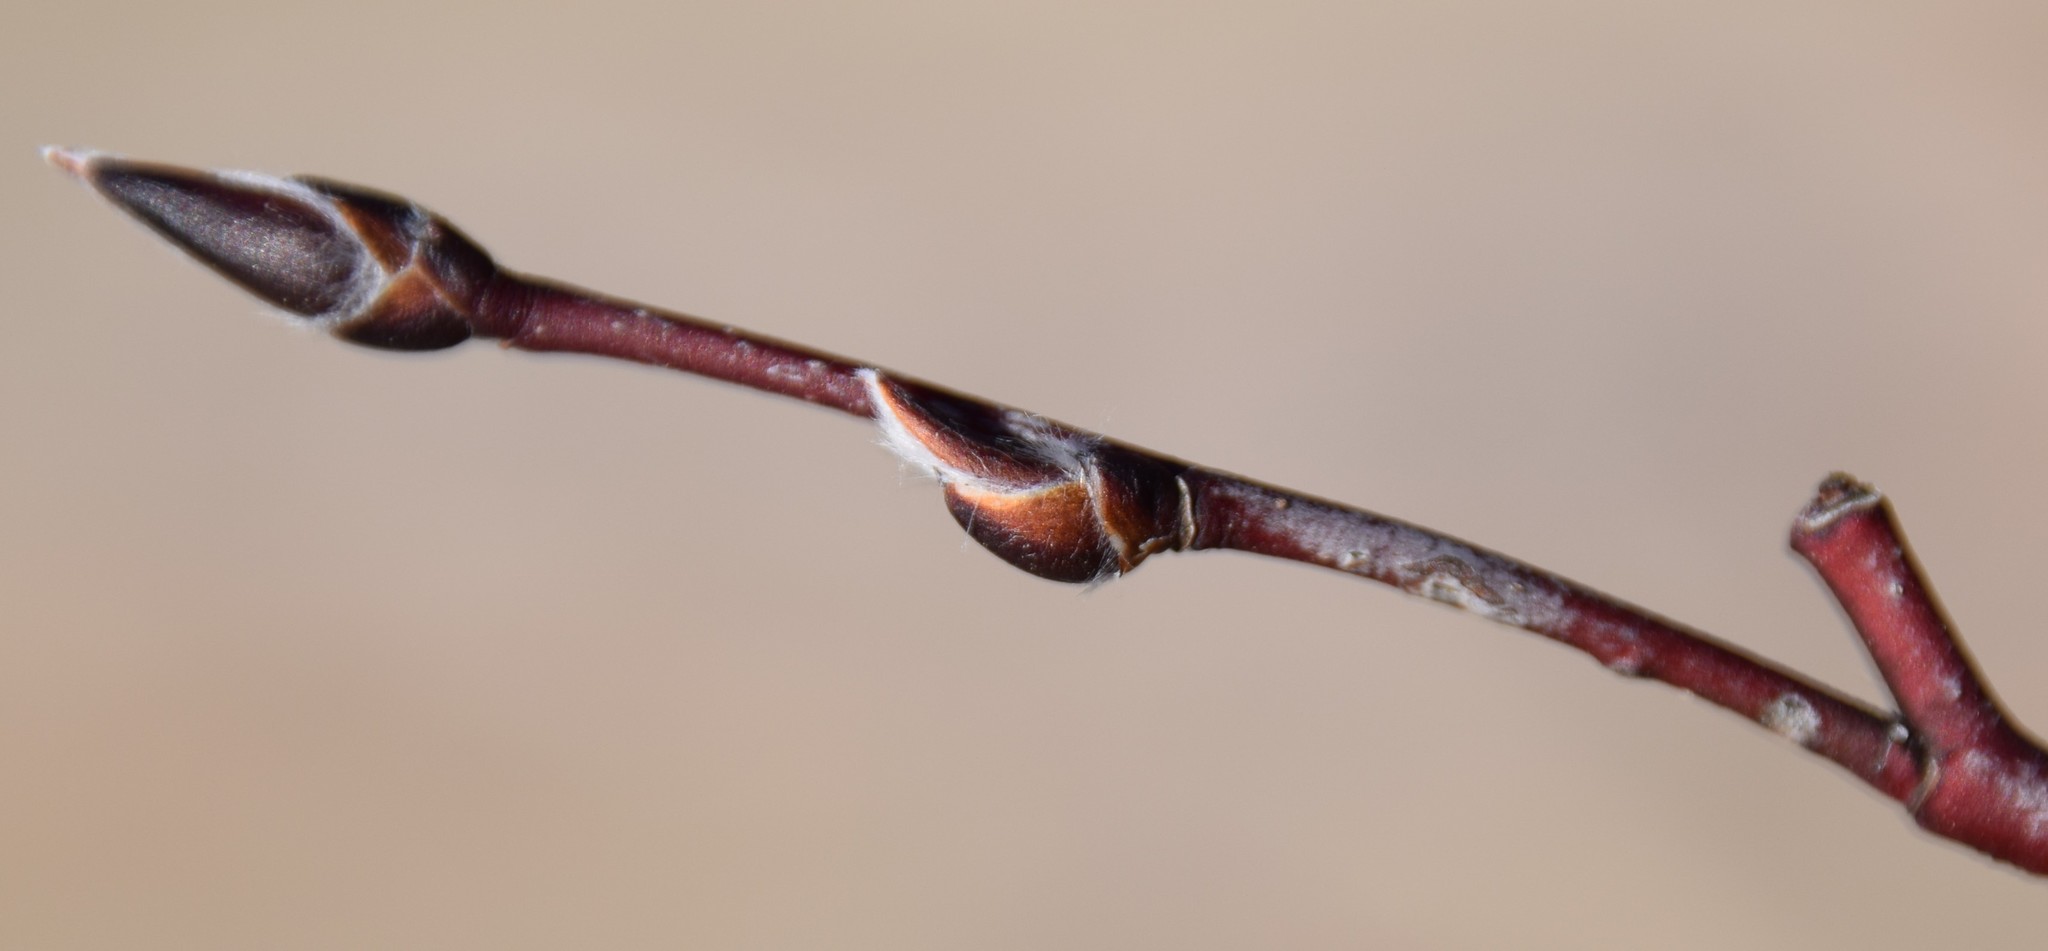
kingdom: Plantae
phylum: Tracheophyta
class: Magnoliopsida
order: Rosales
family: Rosaceae
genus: Amelanchier
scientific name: Amelanchier
